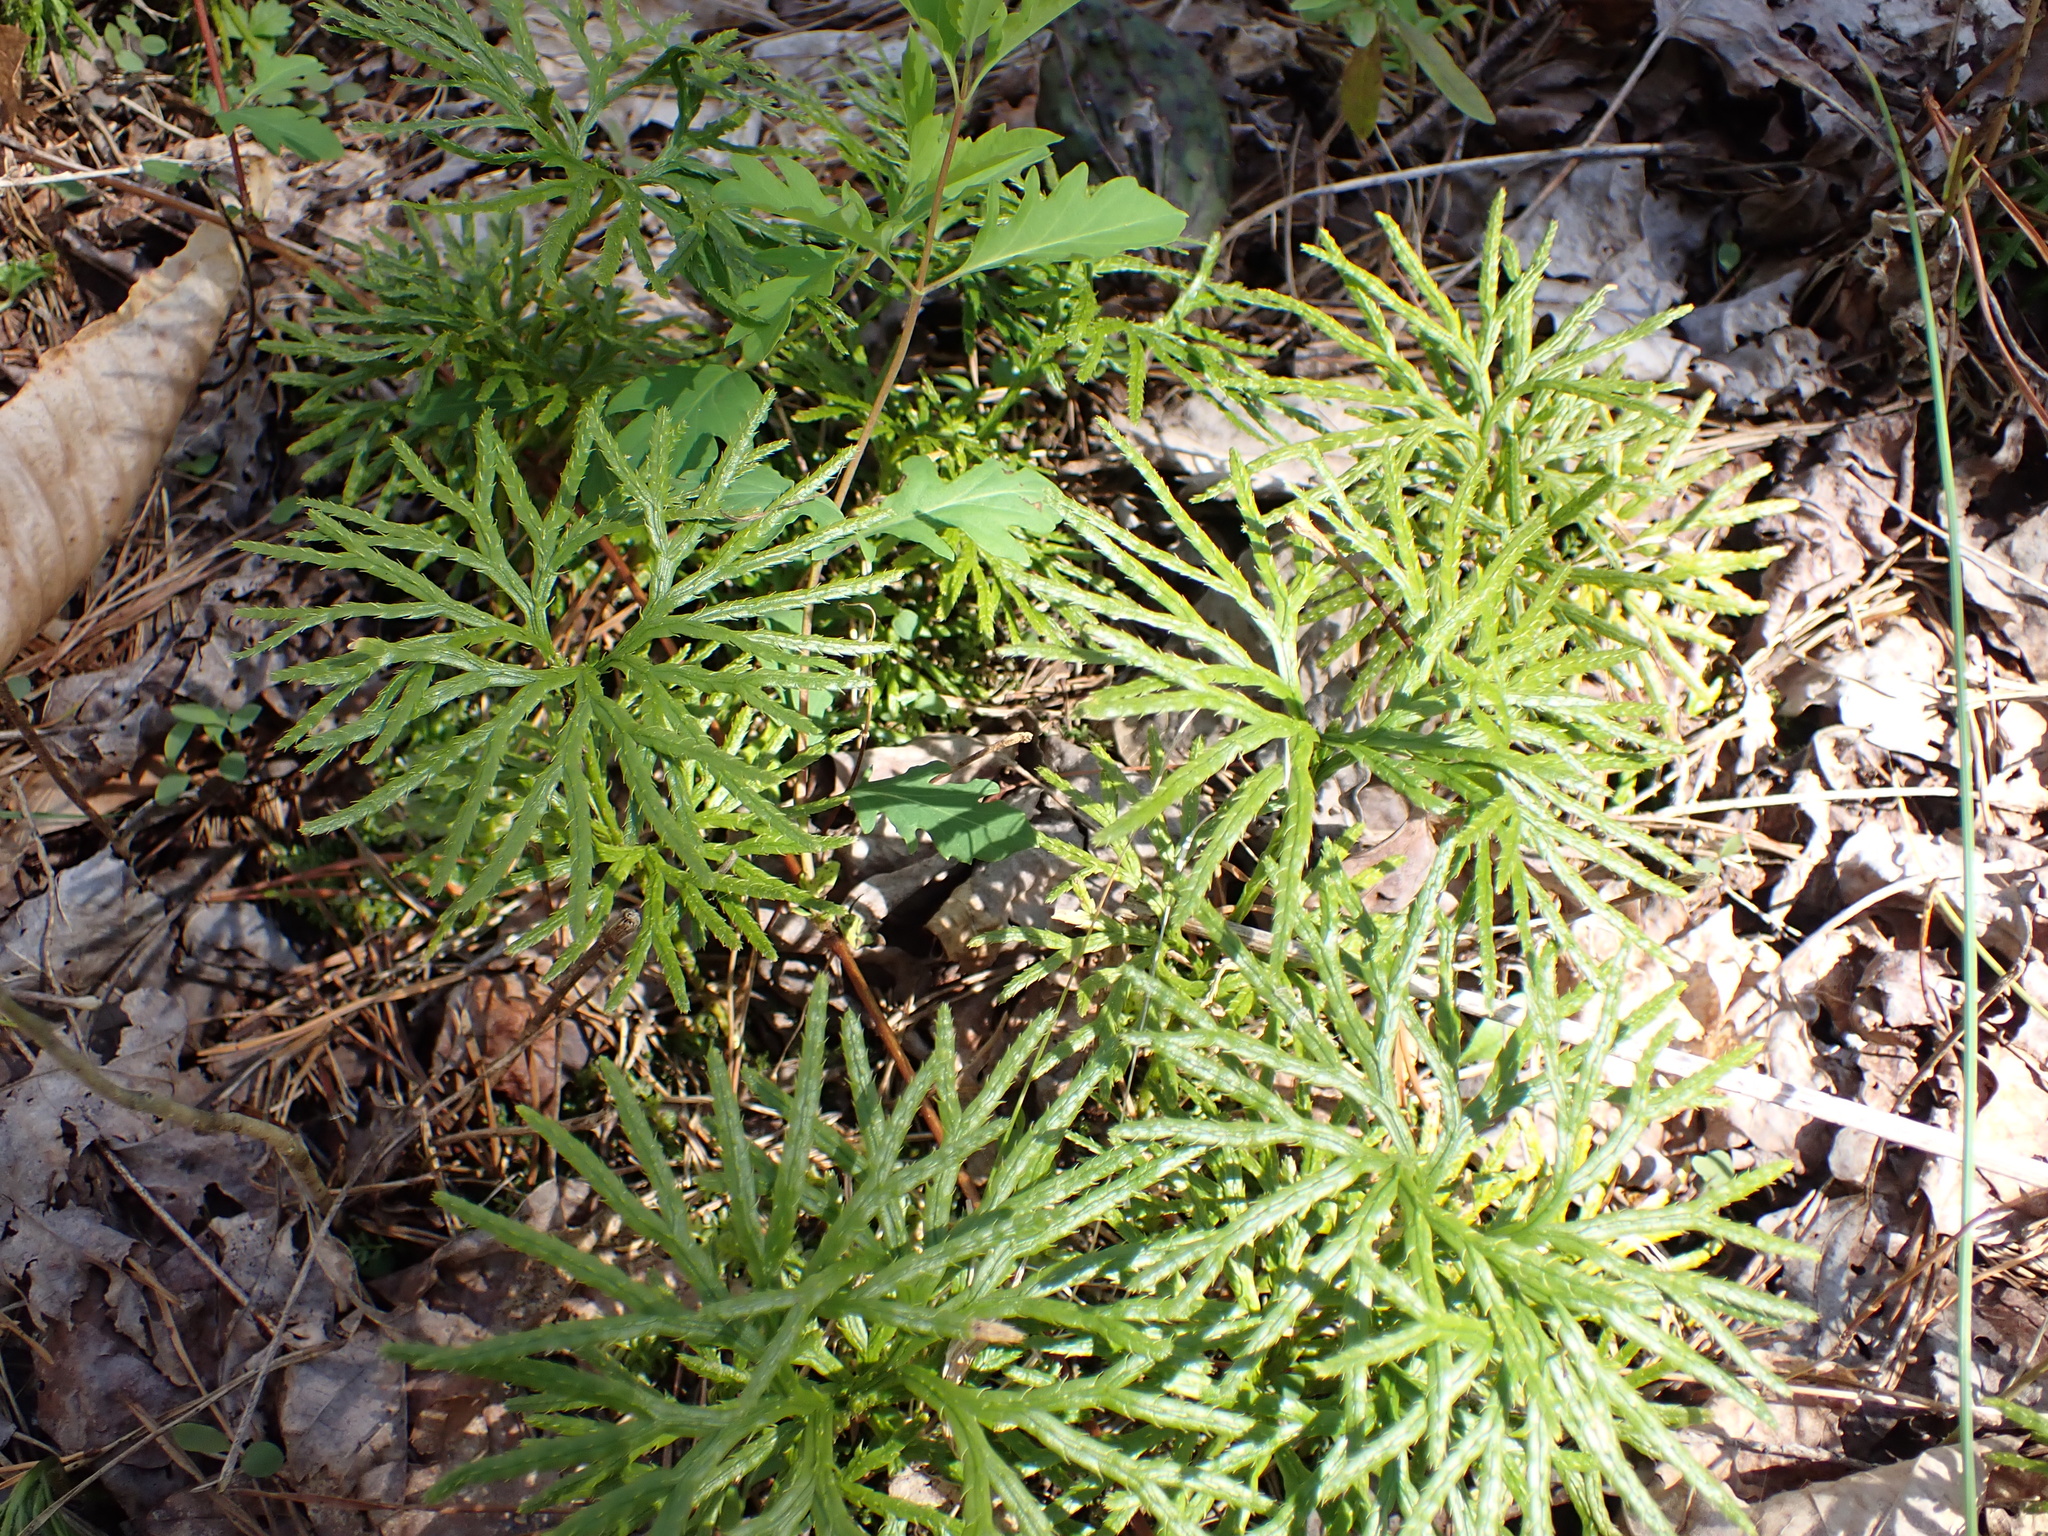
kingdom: Plantae
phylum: Tracheophyta
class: Lycopodiopsida
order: Lycopodiales
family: Lycopodiaceae
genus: Diphasiastrum
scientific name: Diphasiastrum digitatum
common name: Southern running-pine
